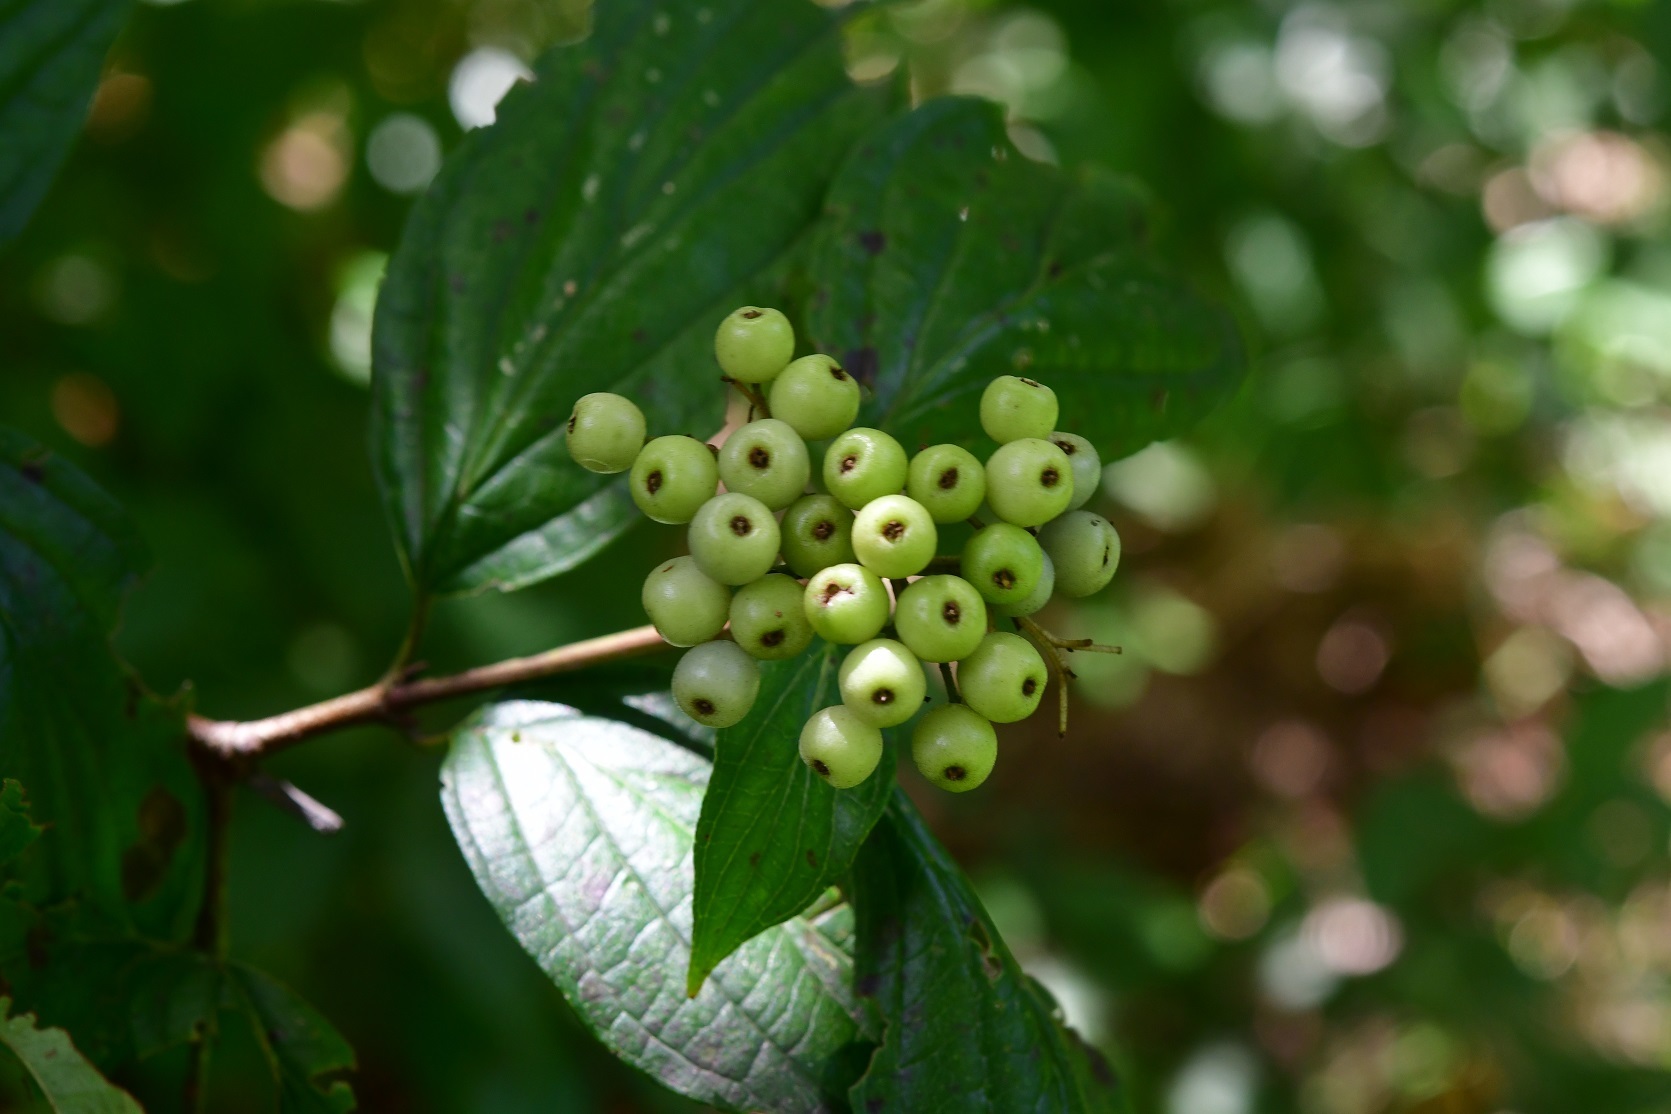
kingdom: Plantae
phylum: Tracheophyta
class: Magnoliopsida
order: Cornales
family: Cornaceae
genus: Cornus
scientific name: Cornus excelsa
